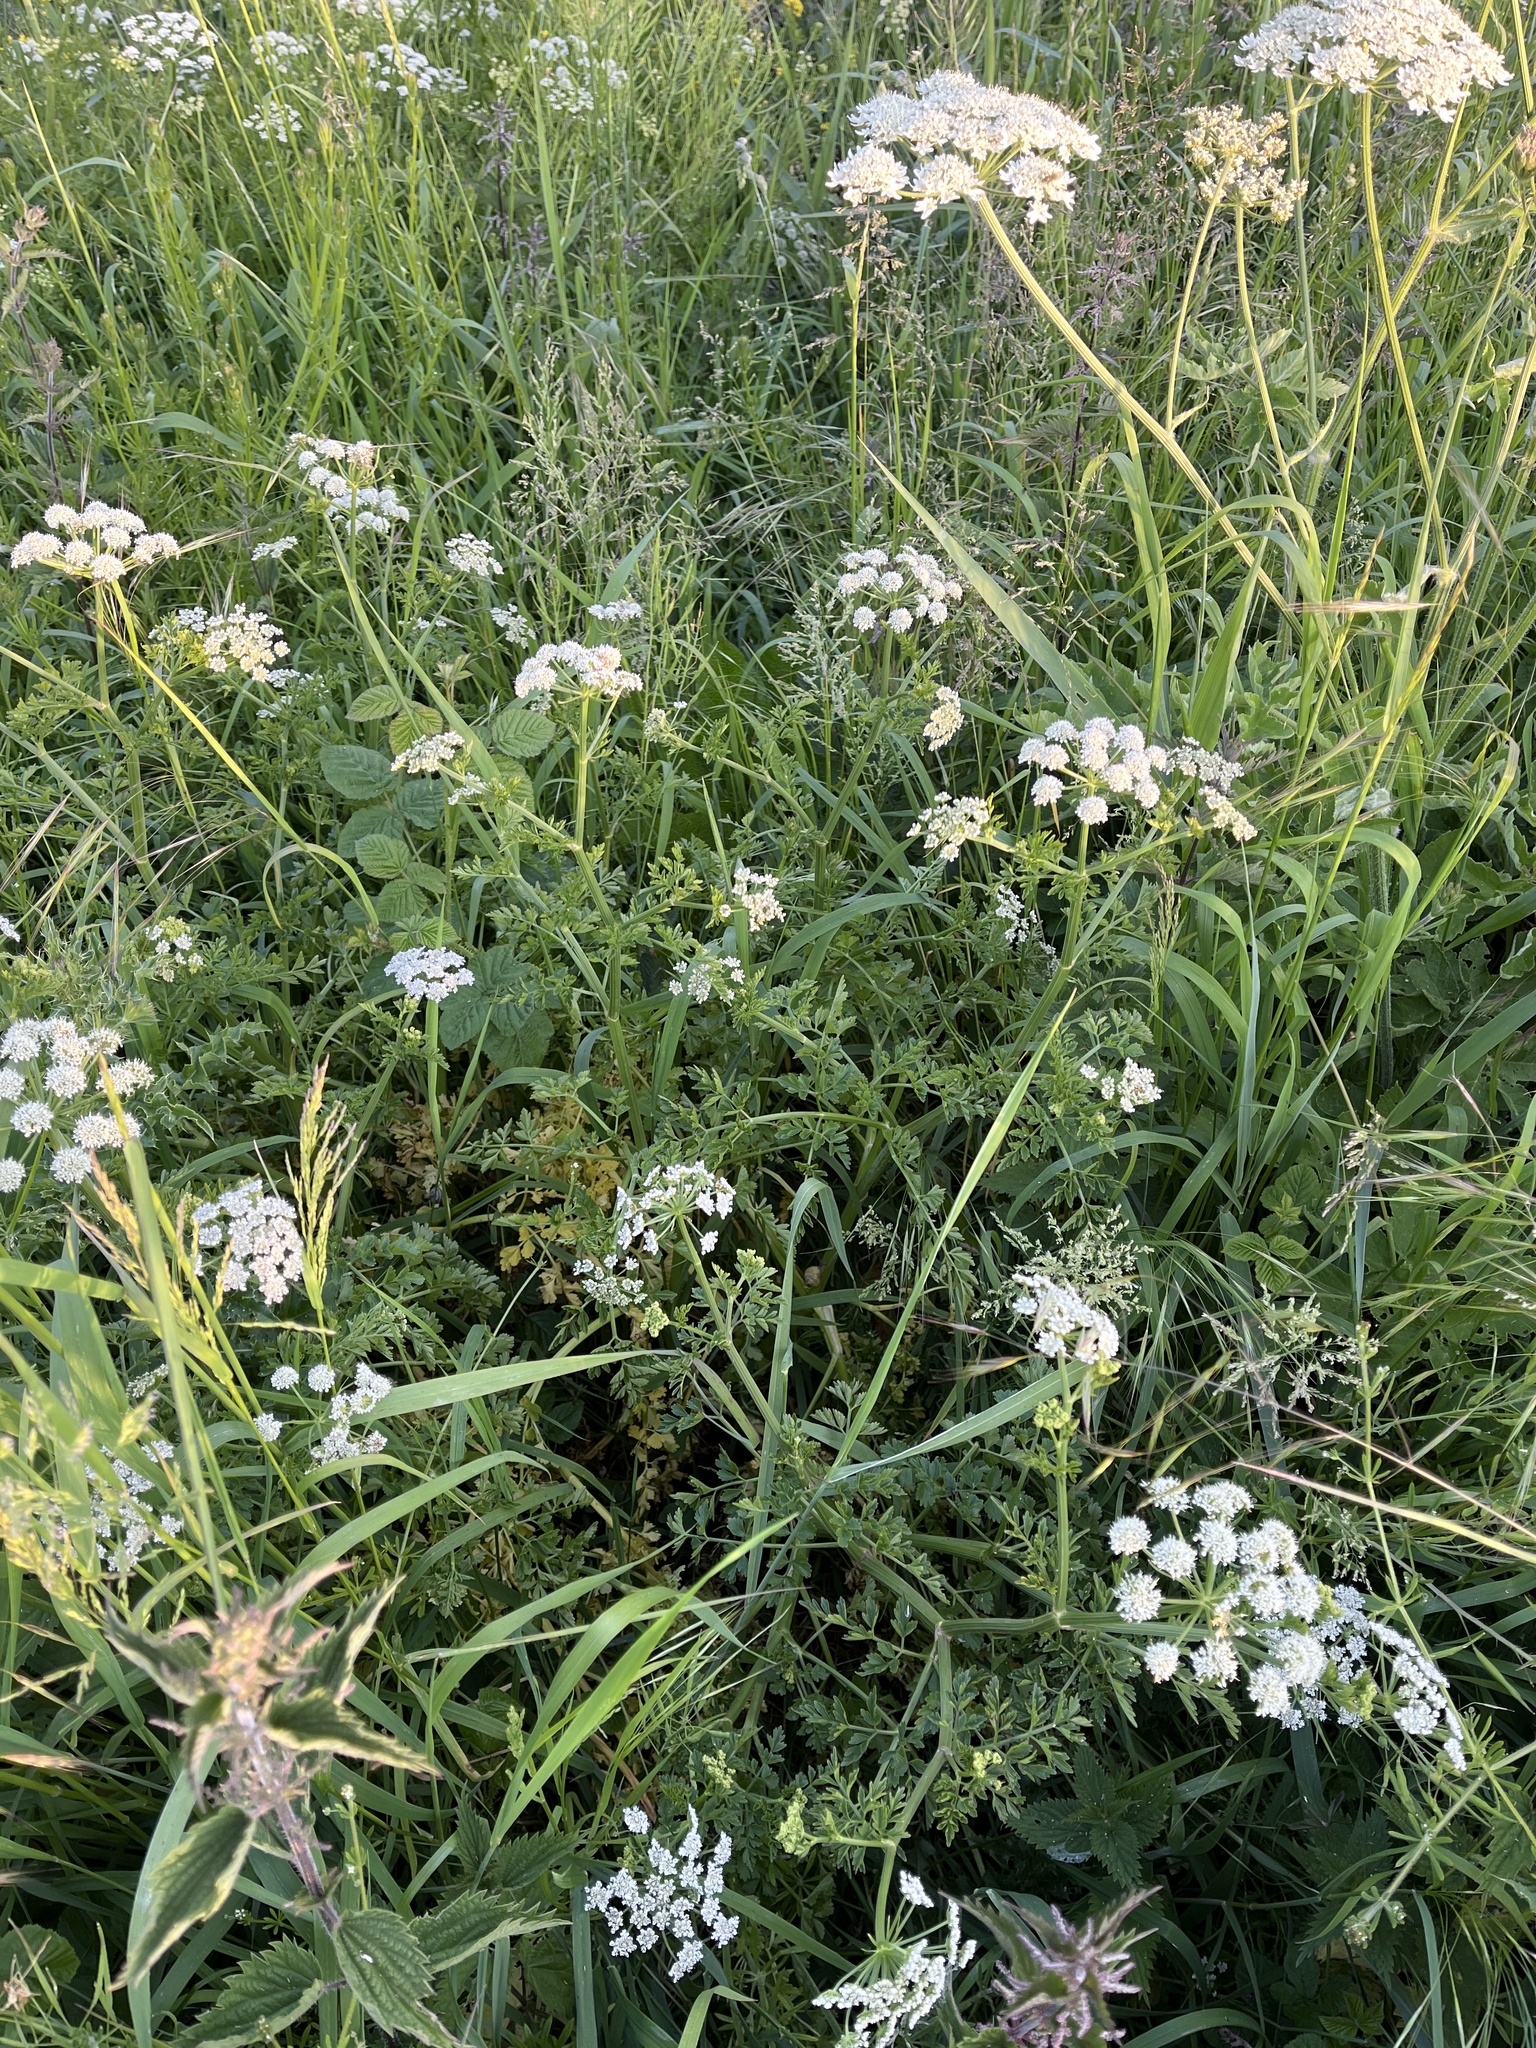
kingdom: Plantae
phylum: Tracheophyta
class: Magnoliopsida
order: Apiales
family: Apiaceae
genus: Oenanthe
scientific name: Oenanthe crocata
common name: Hemlock water-dropwort
